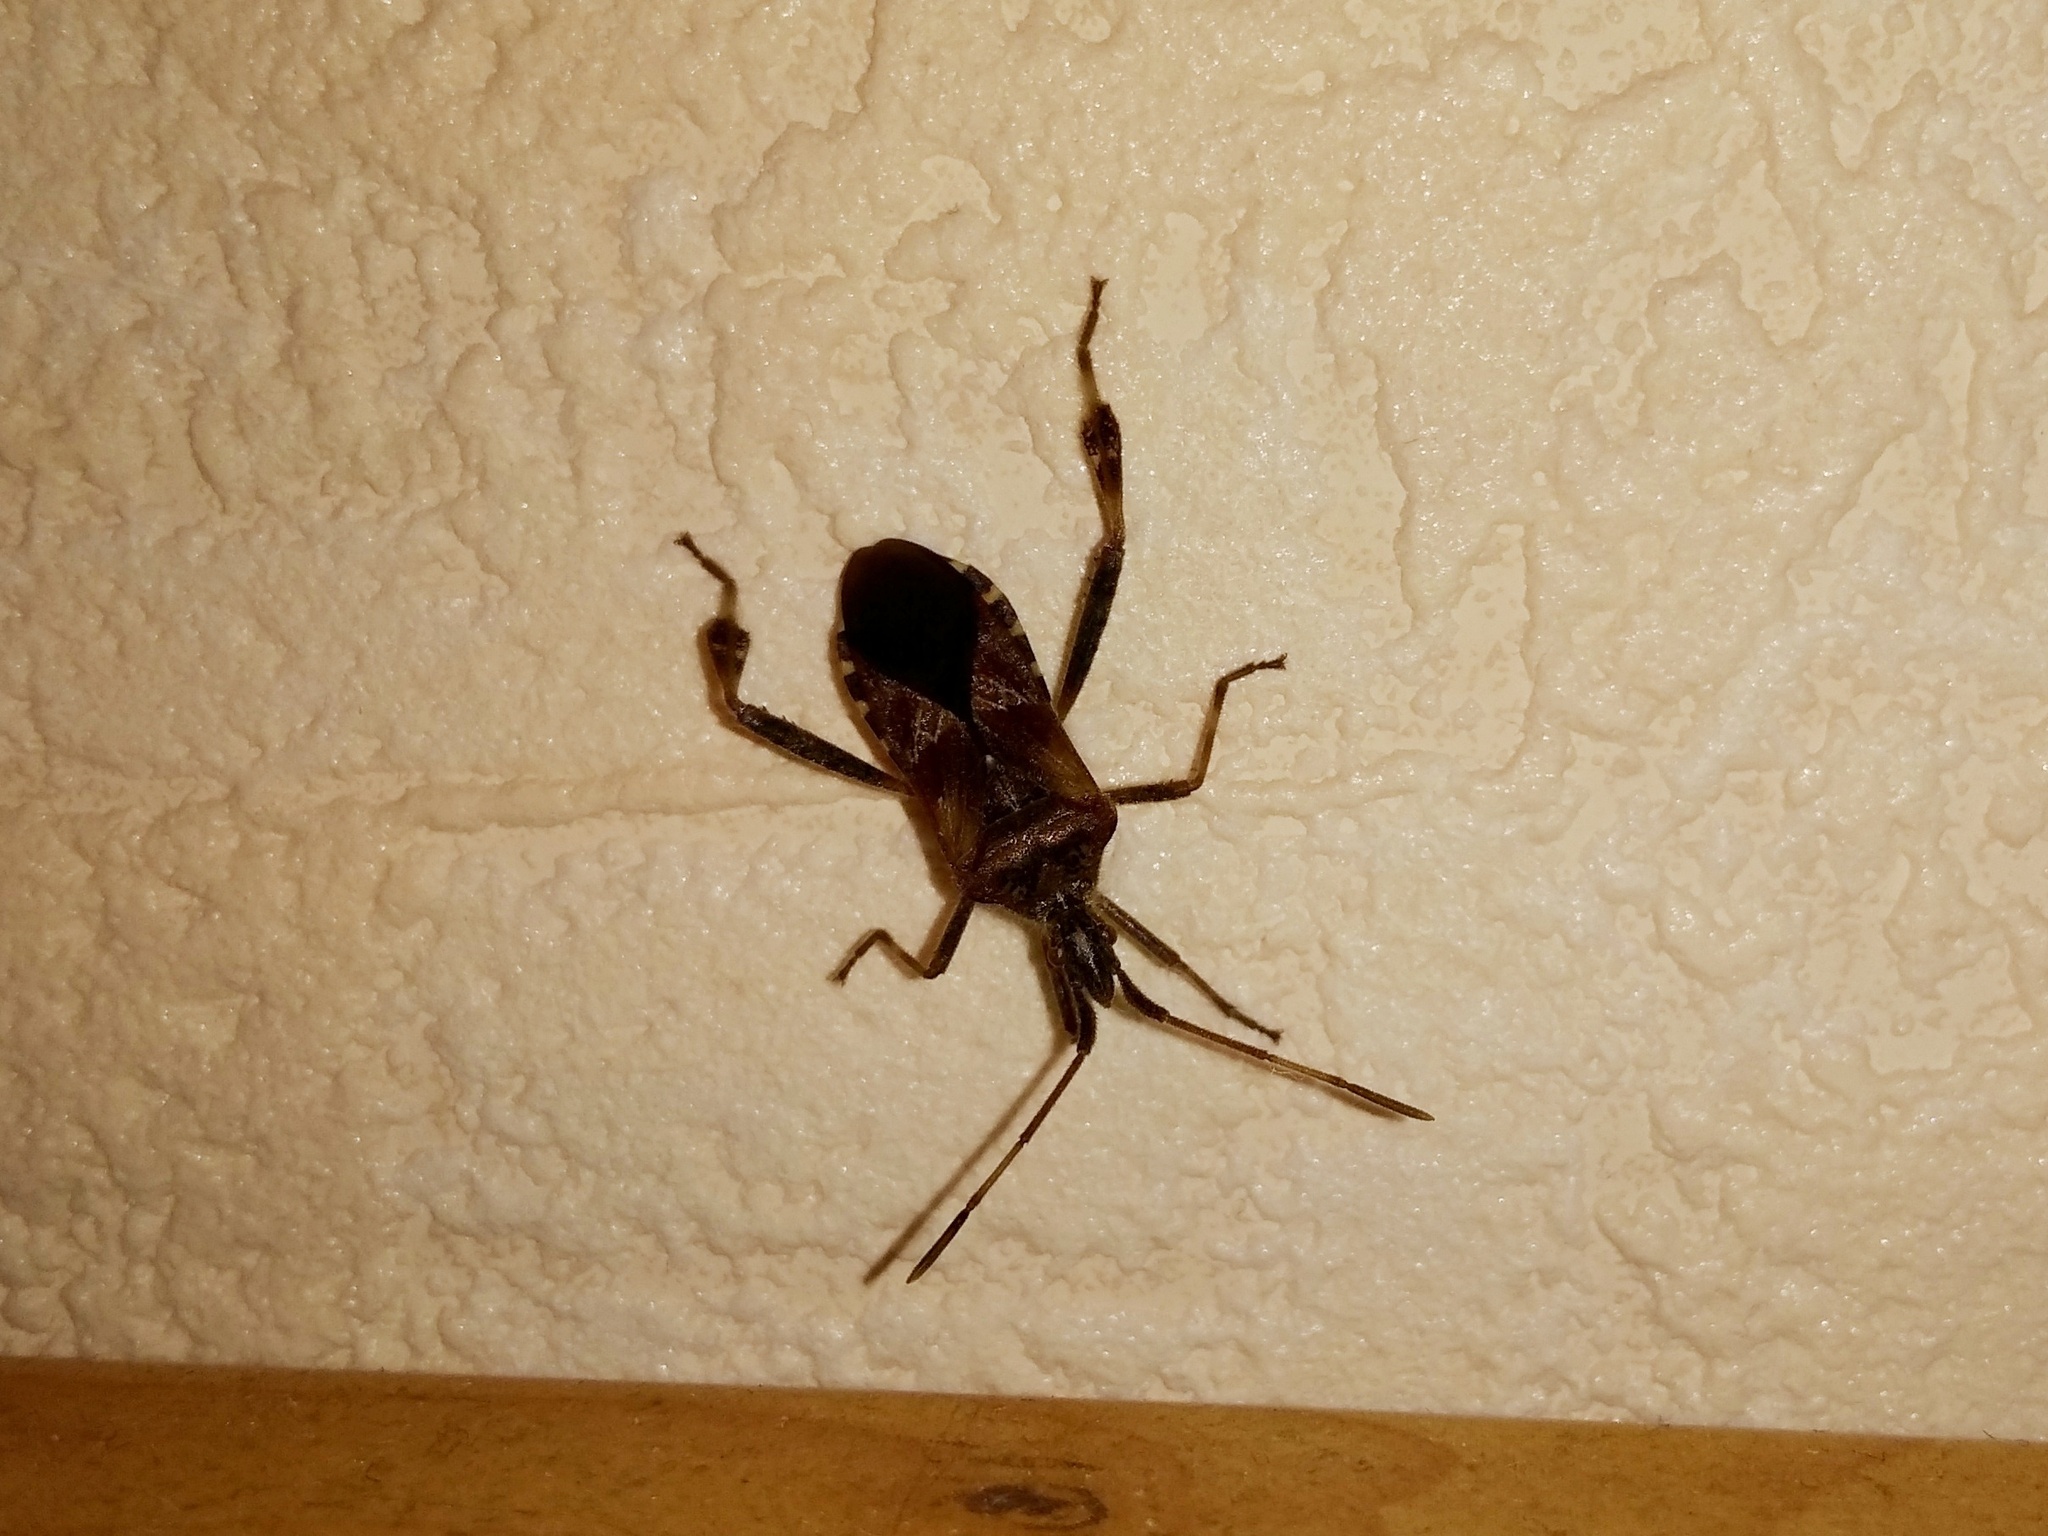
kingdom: Animalia
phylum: Arthropoda
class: Insecta
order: Hemiptera
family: Coreidae
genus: Leptoglossus
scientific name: Leptoglossus occidentalis
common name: Western conifer-seed bug
